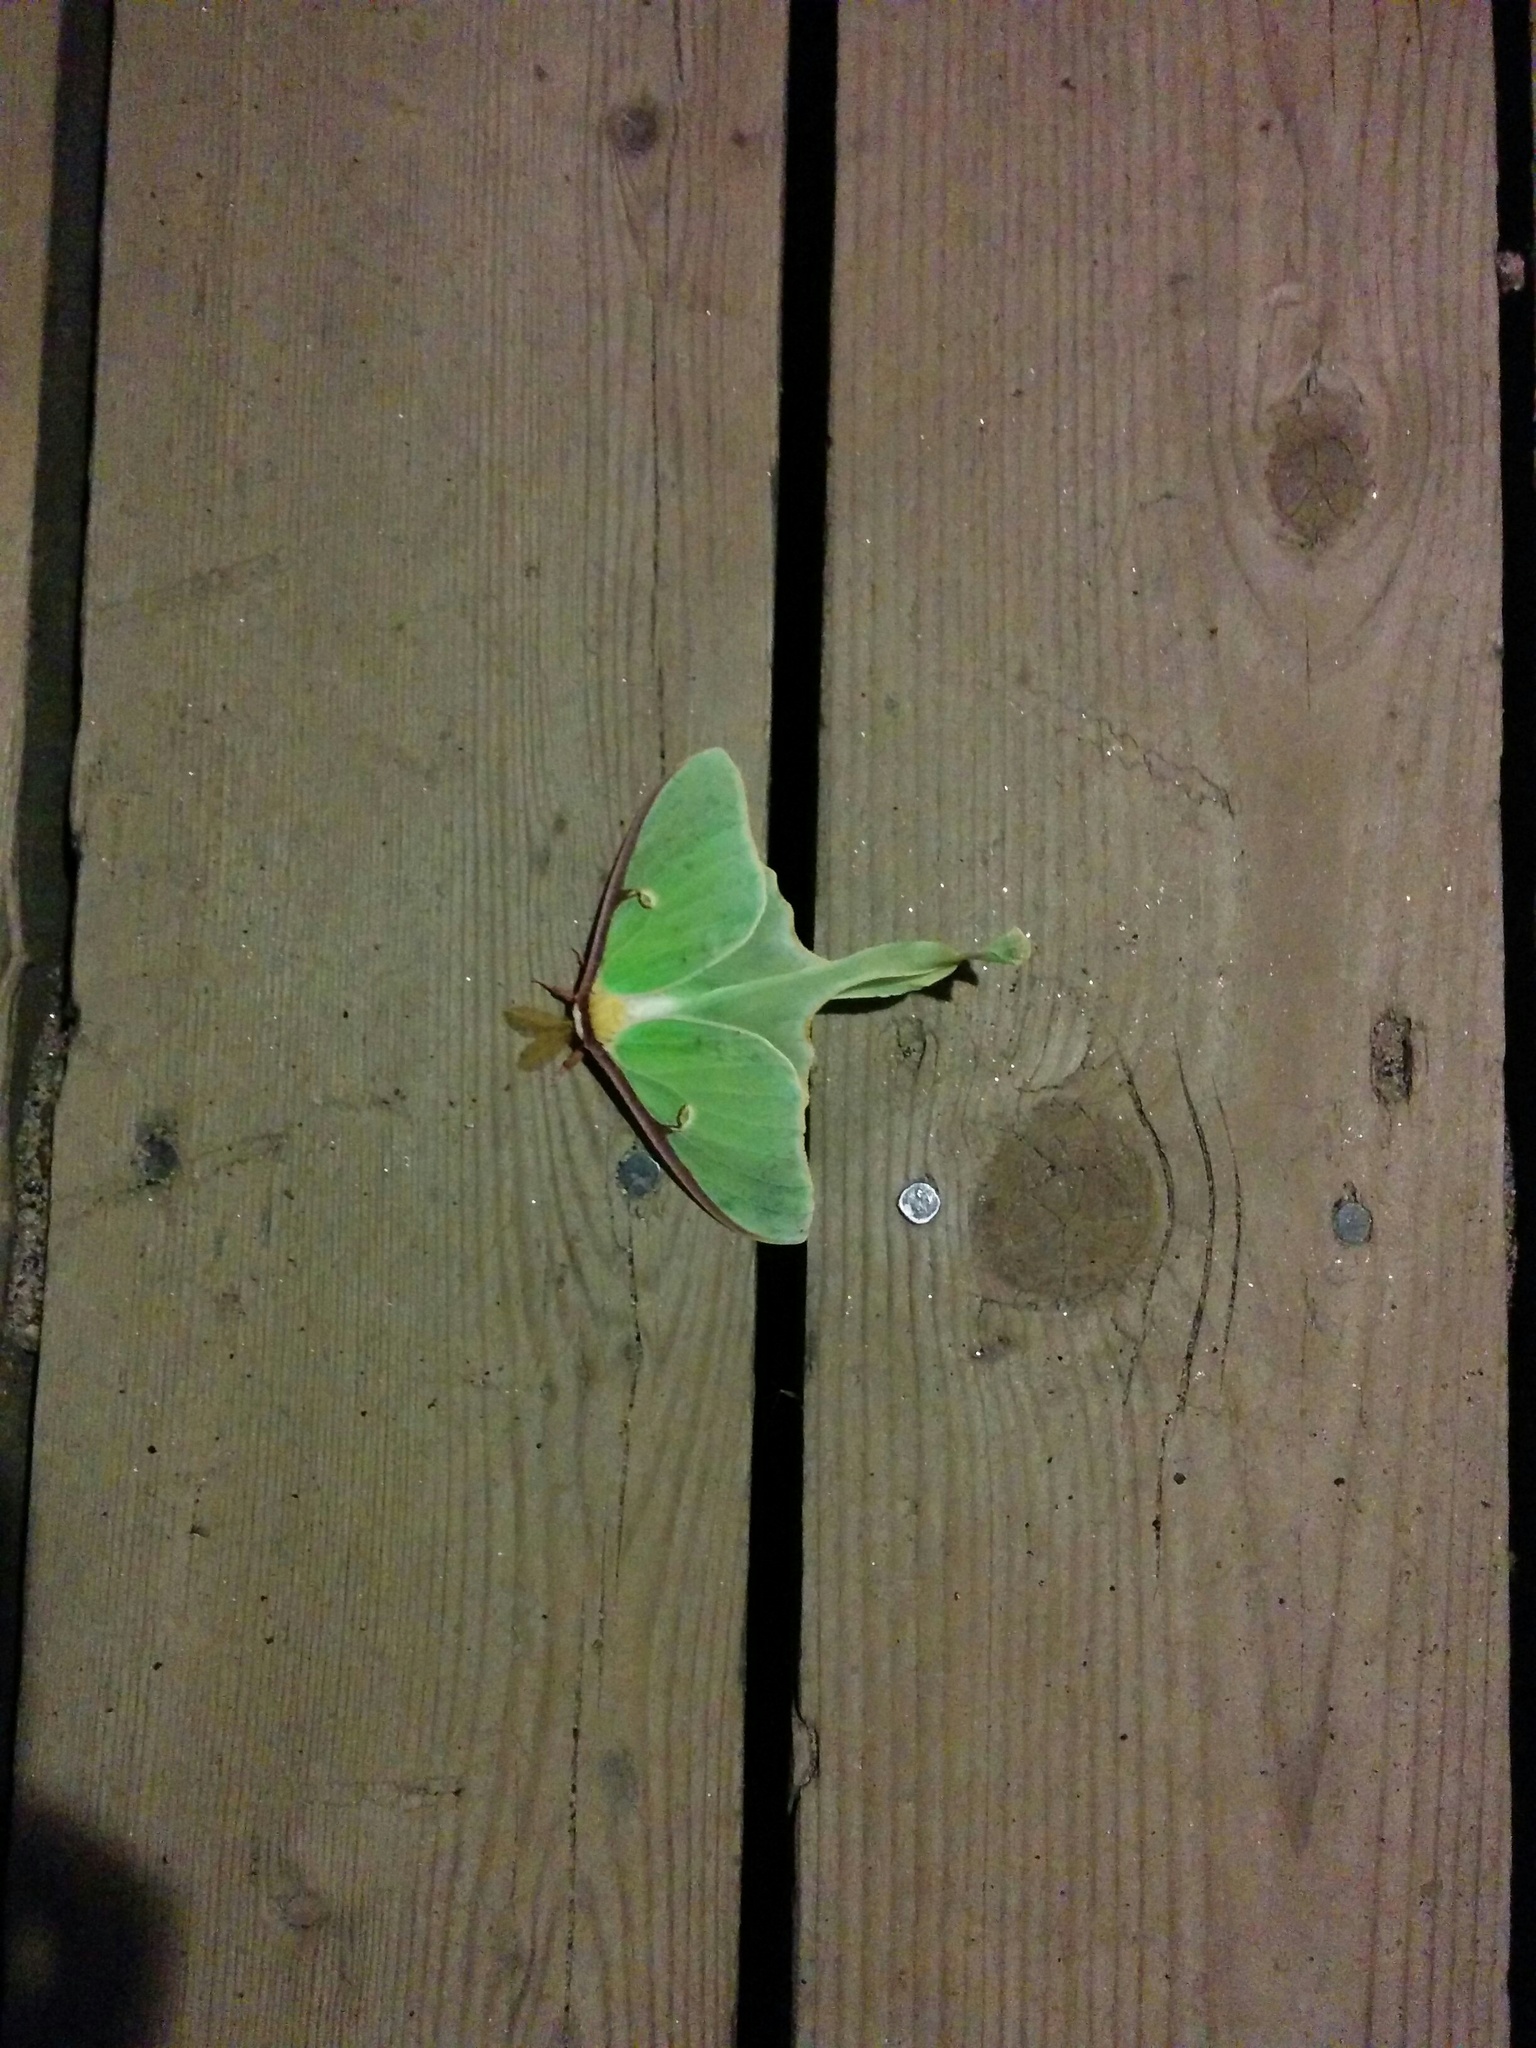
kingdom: Animalia
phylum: Arthropoda
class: Insecta
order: Lepidoptera
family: Saturniidae
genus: Actias
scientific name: Actias luna
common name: Luna moth
